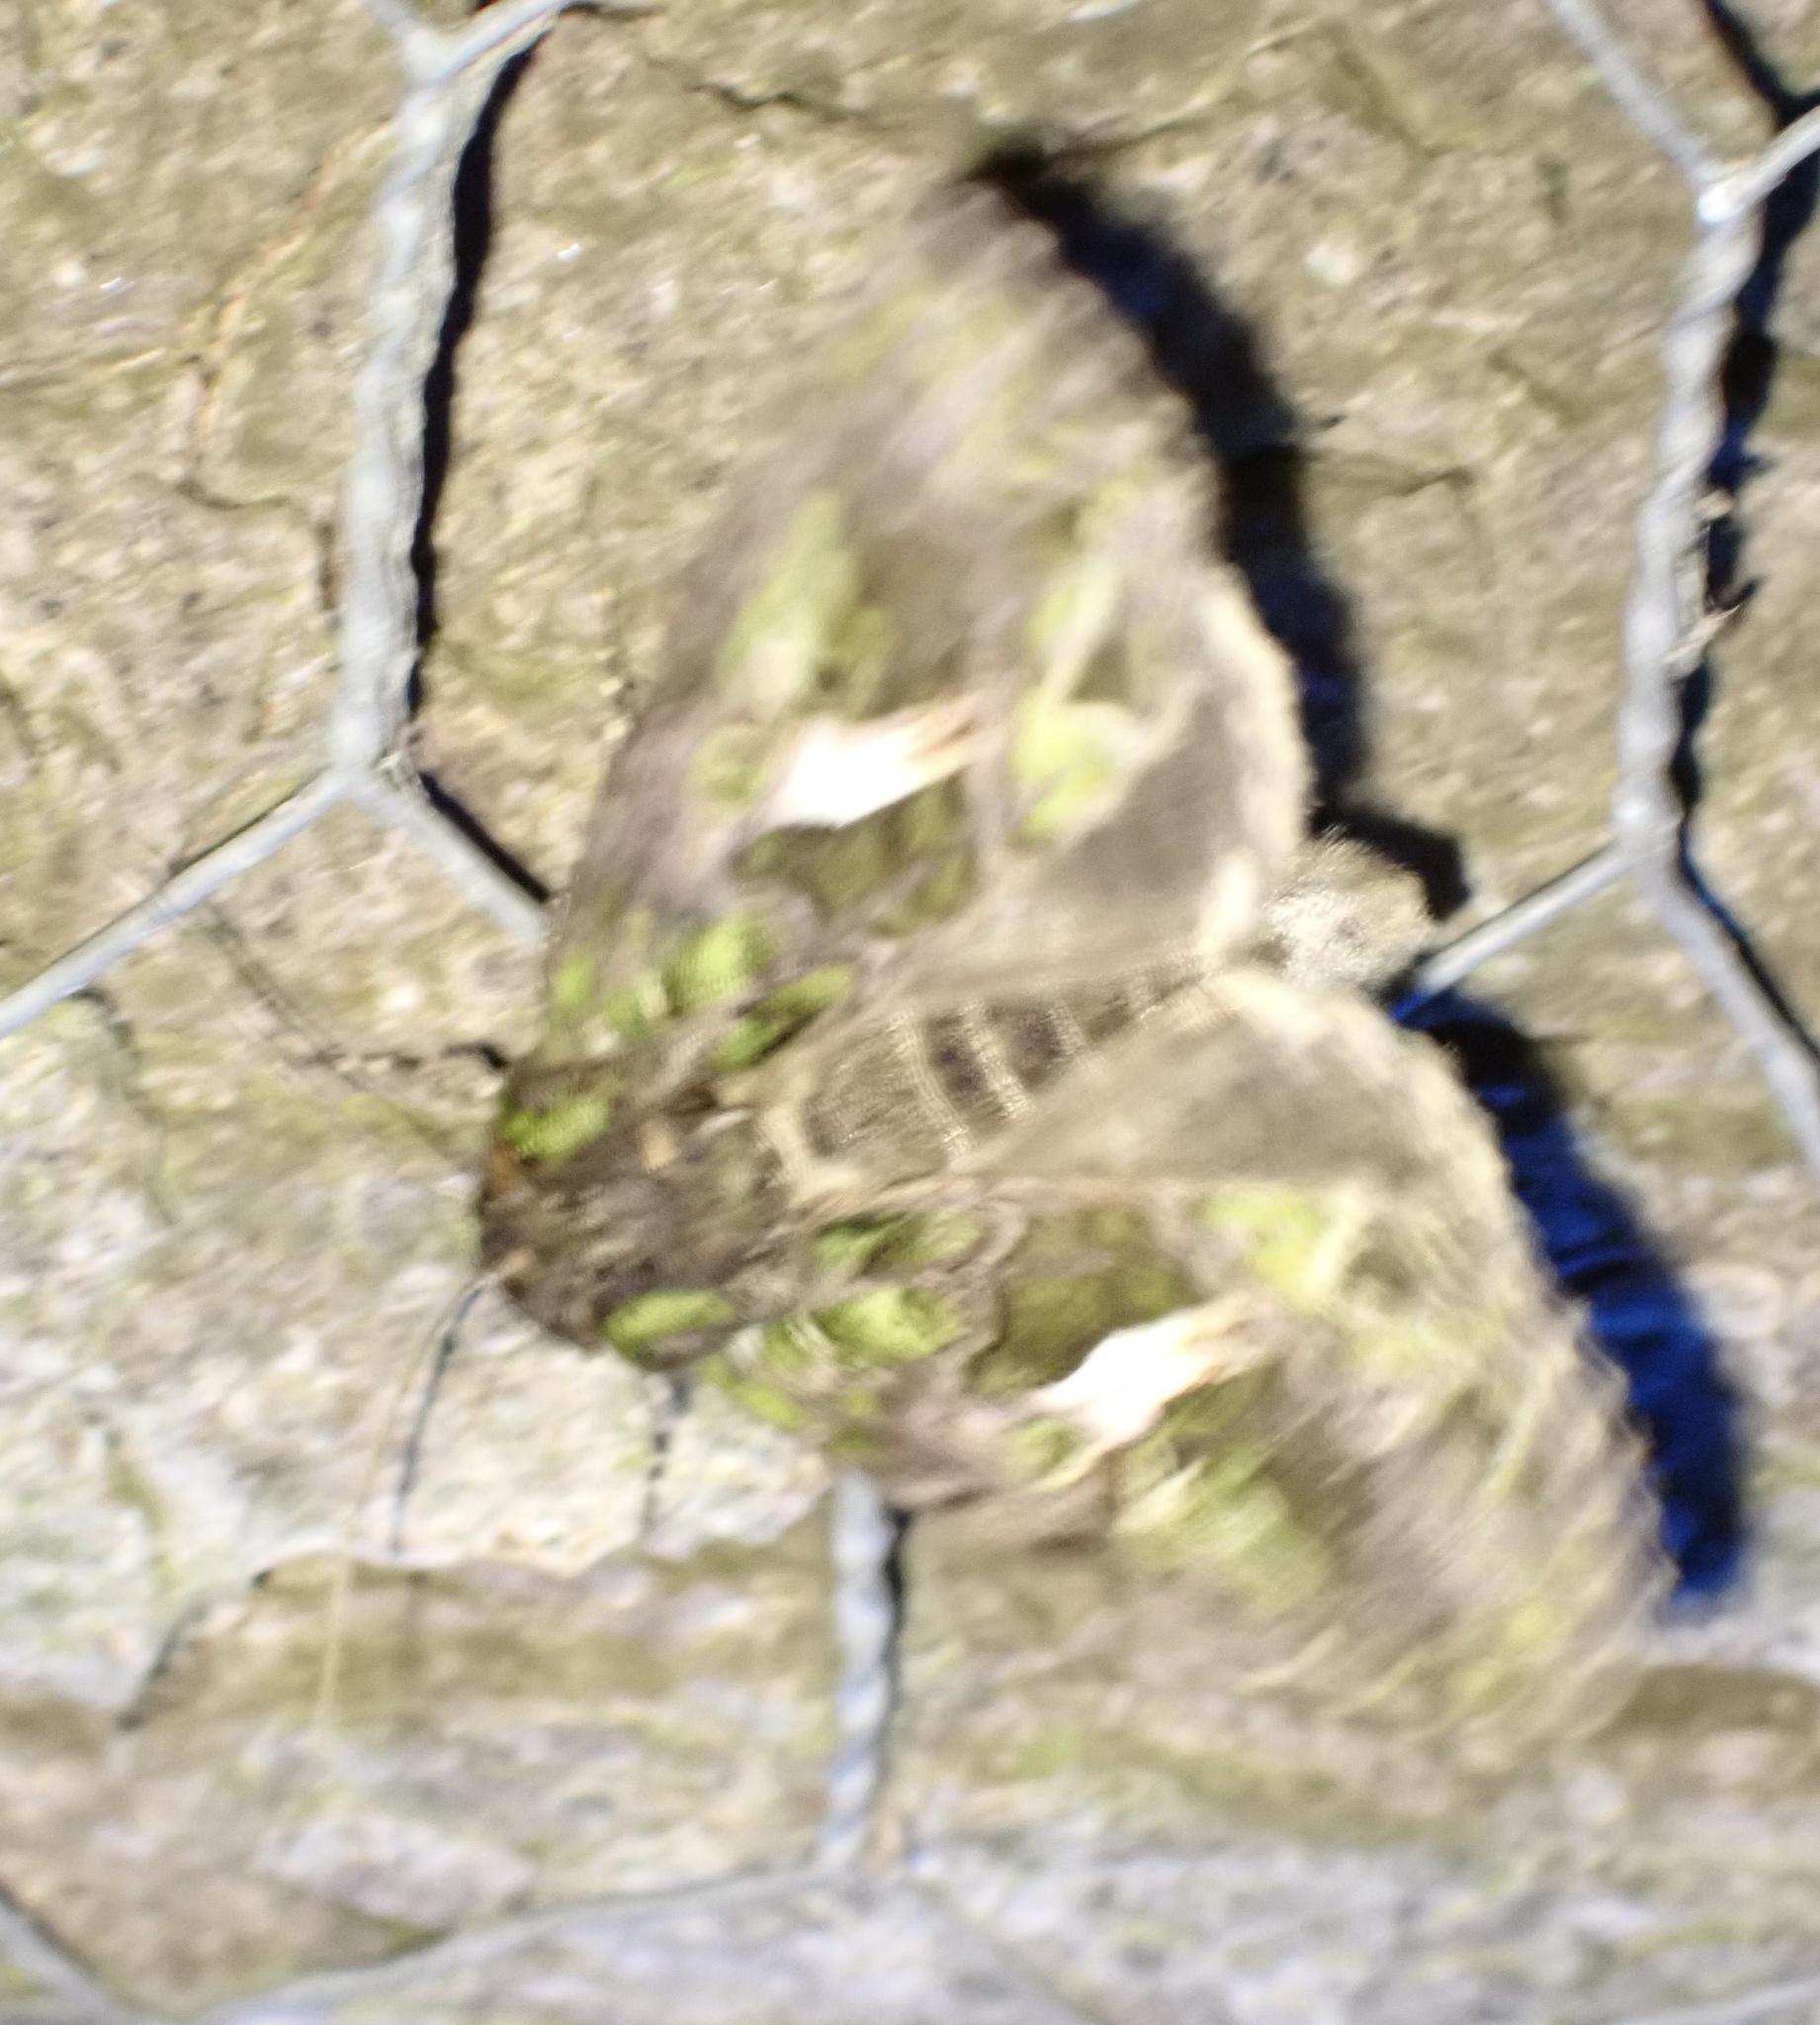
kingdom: Animalia
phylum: Arthropoda
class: Insecta
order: Lepidoptera
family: Noctuidae
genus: Trachea
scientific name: Trachea atriplicis
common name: Orache moth
